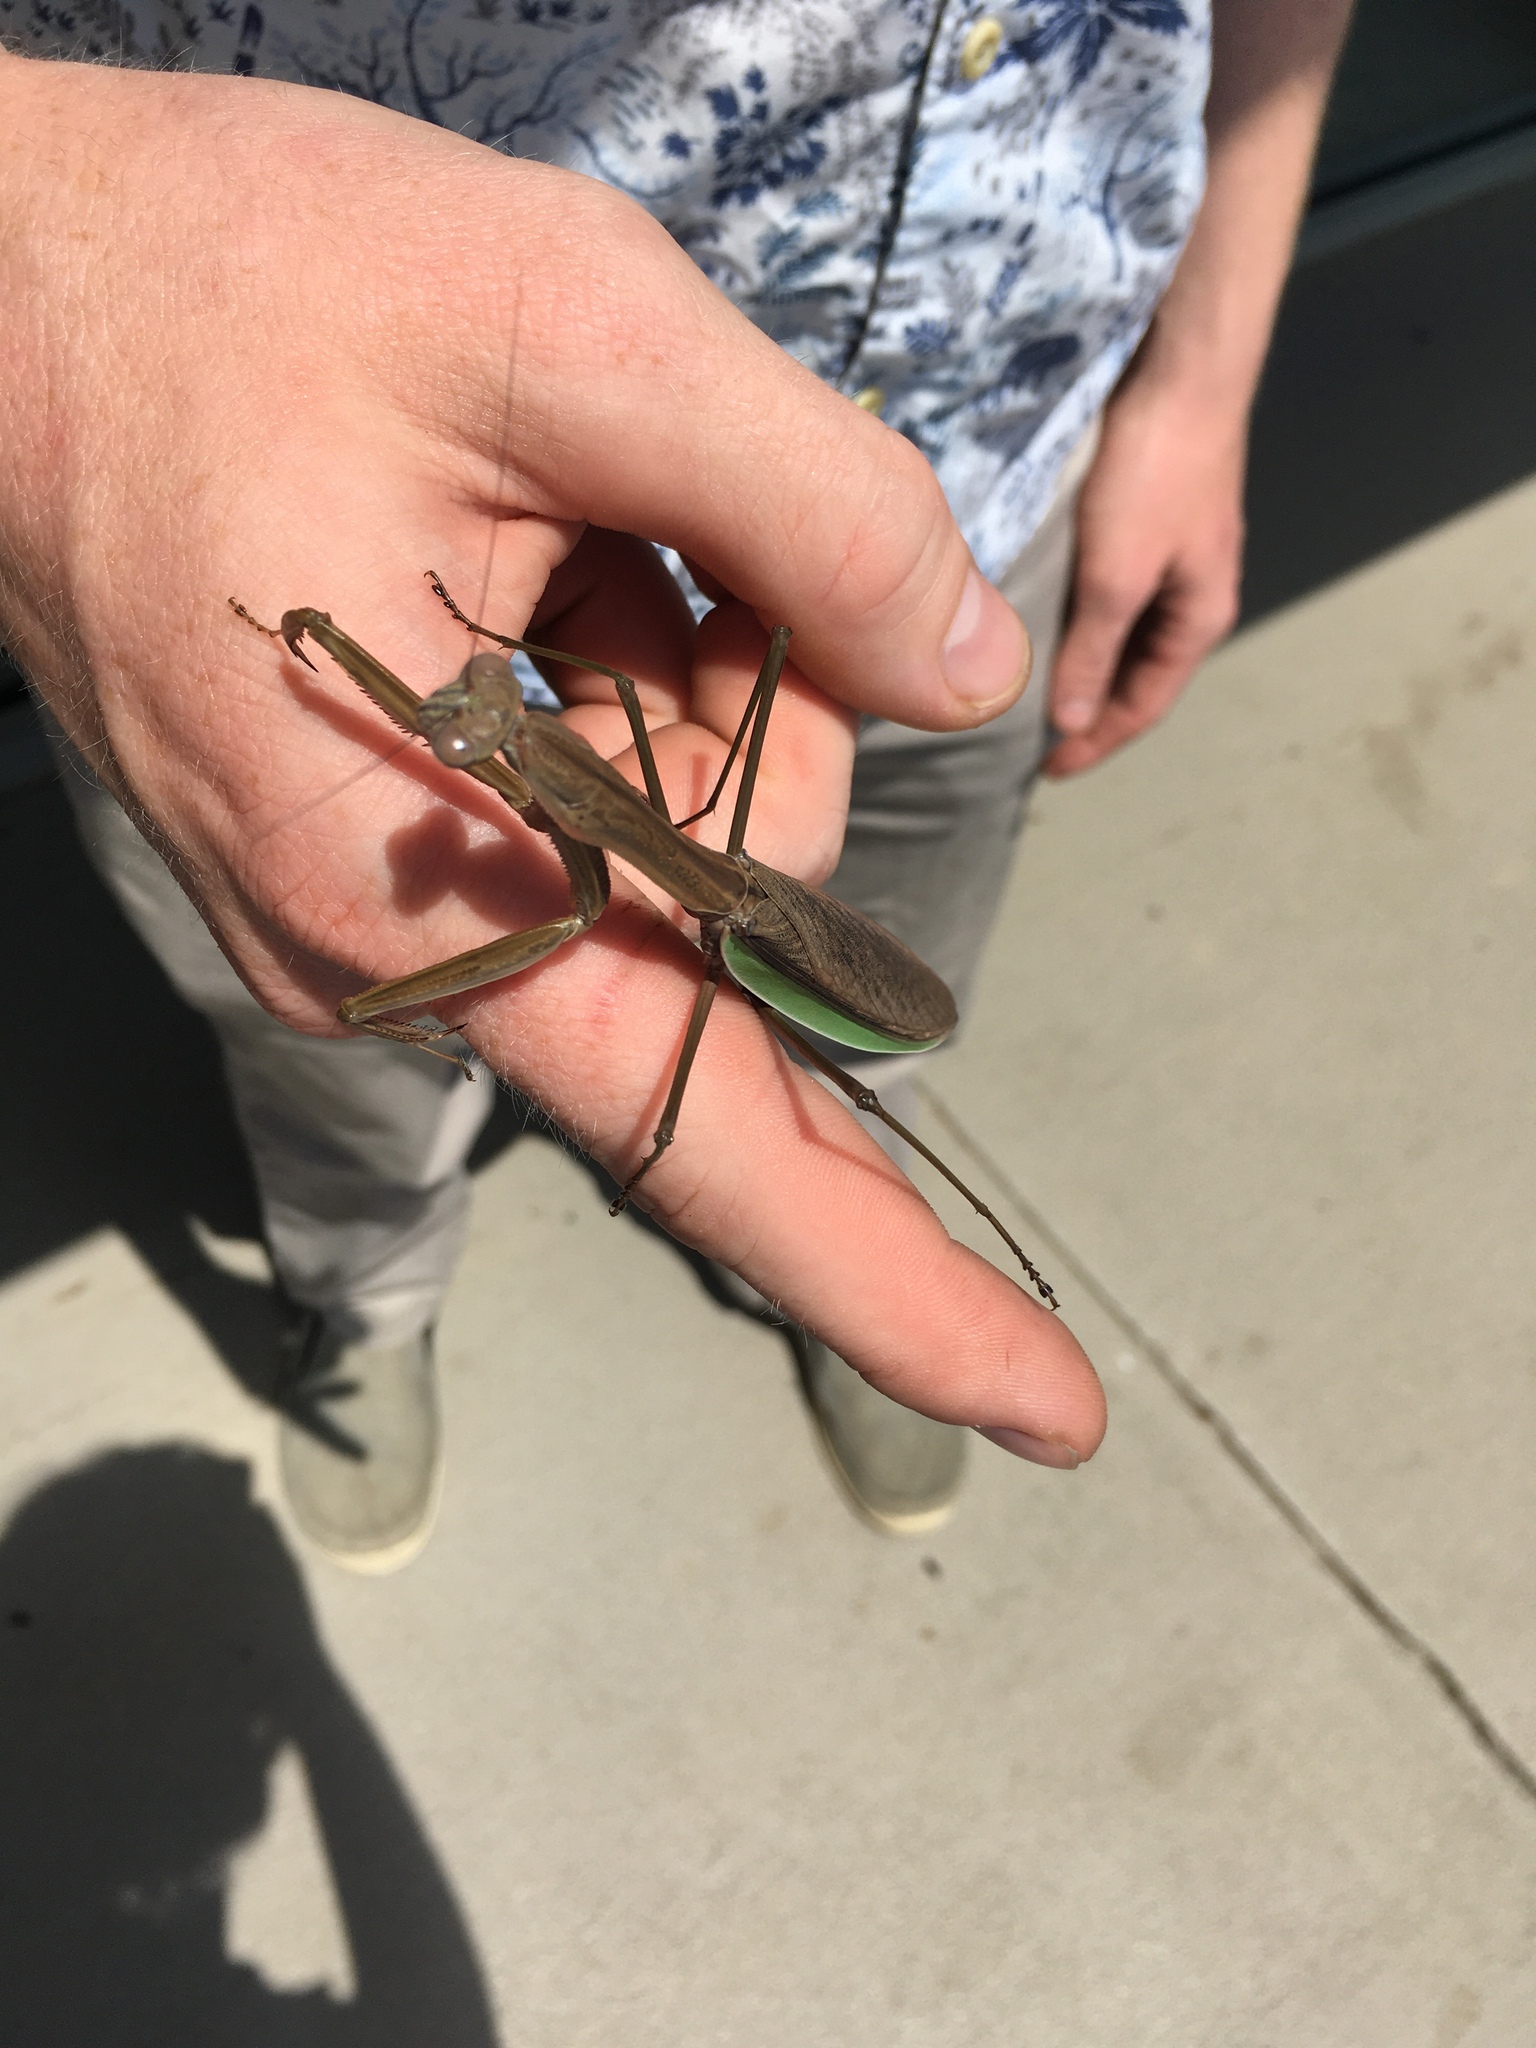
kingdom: Animalia
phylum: Arthropoda
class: Insecta
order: Mantodea
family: Mantidae
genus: Tenodera
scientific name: Tenodera sinensis
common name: Chinese mantis
